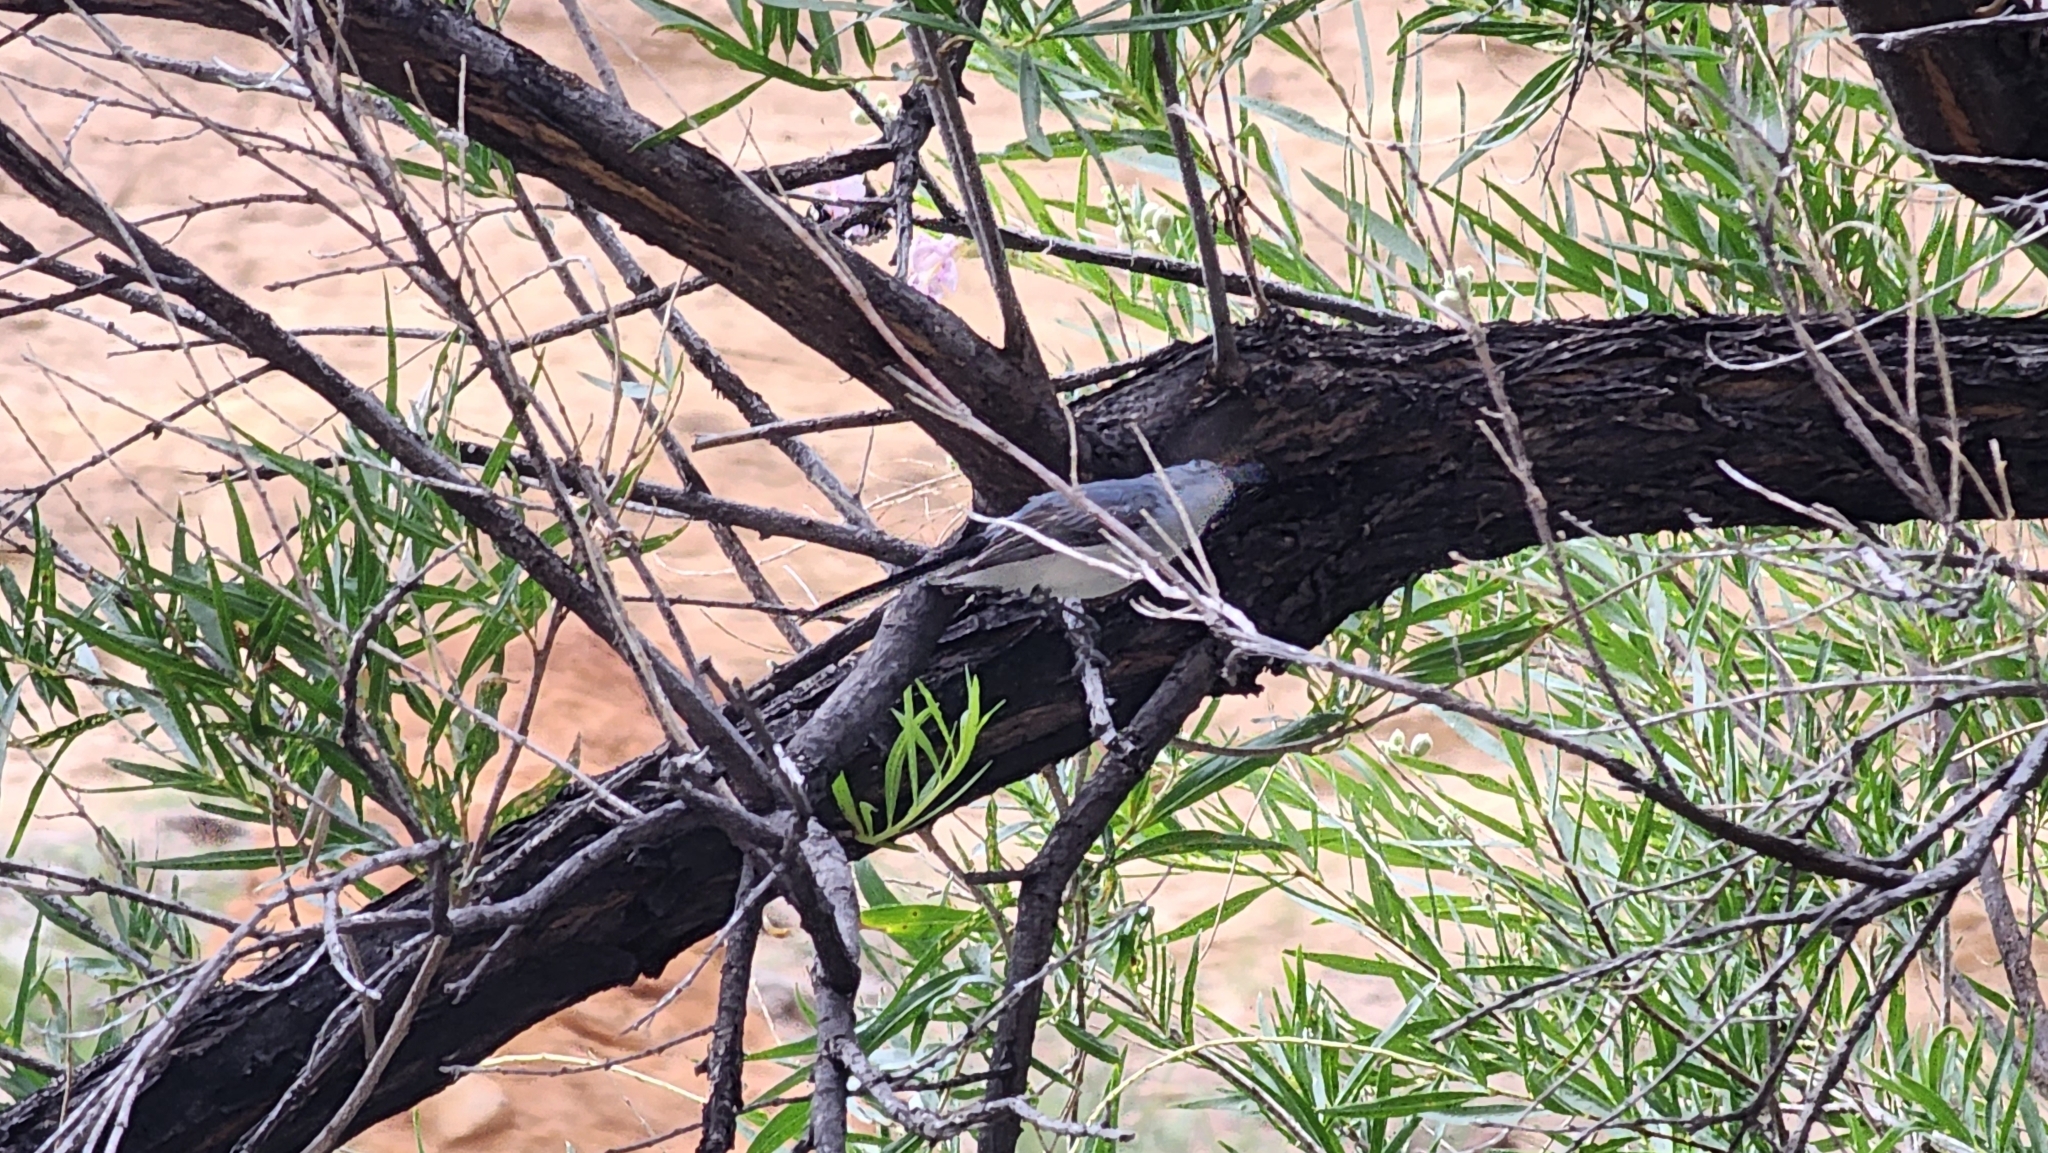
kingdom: Animalia
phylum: Chordata
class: Aves
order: Passeriformes
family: Polioptilidae
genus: Polioptila
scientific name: Polioptila caerulea
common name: Blue-gray gnatcatcher
